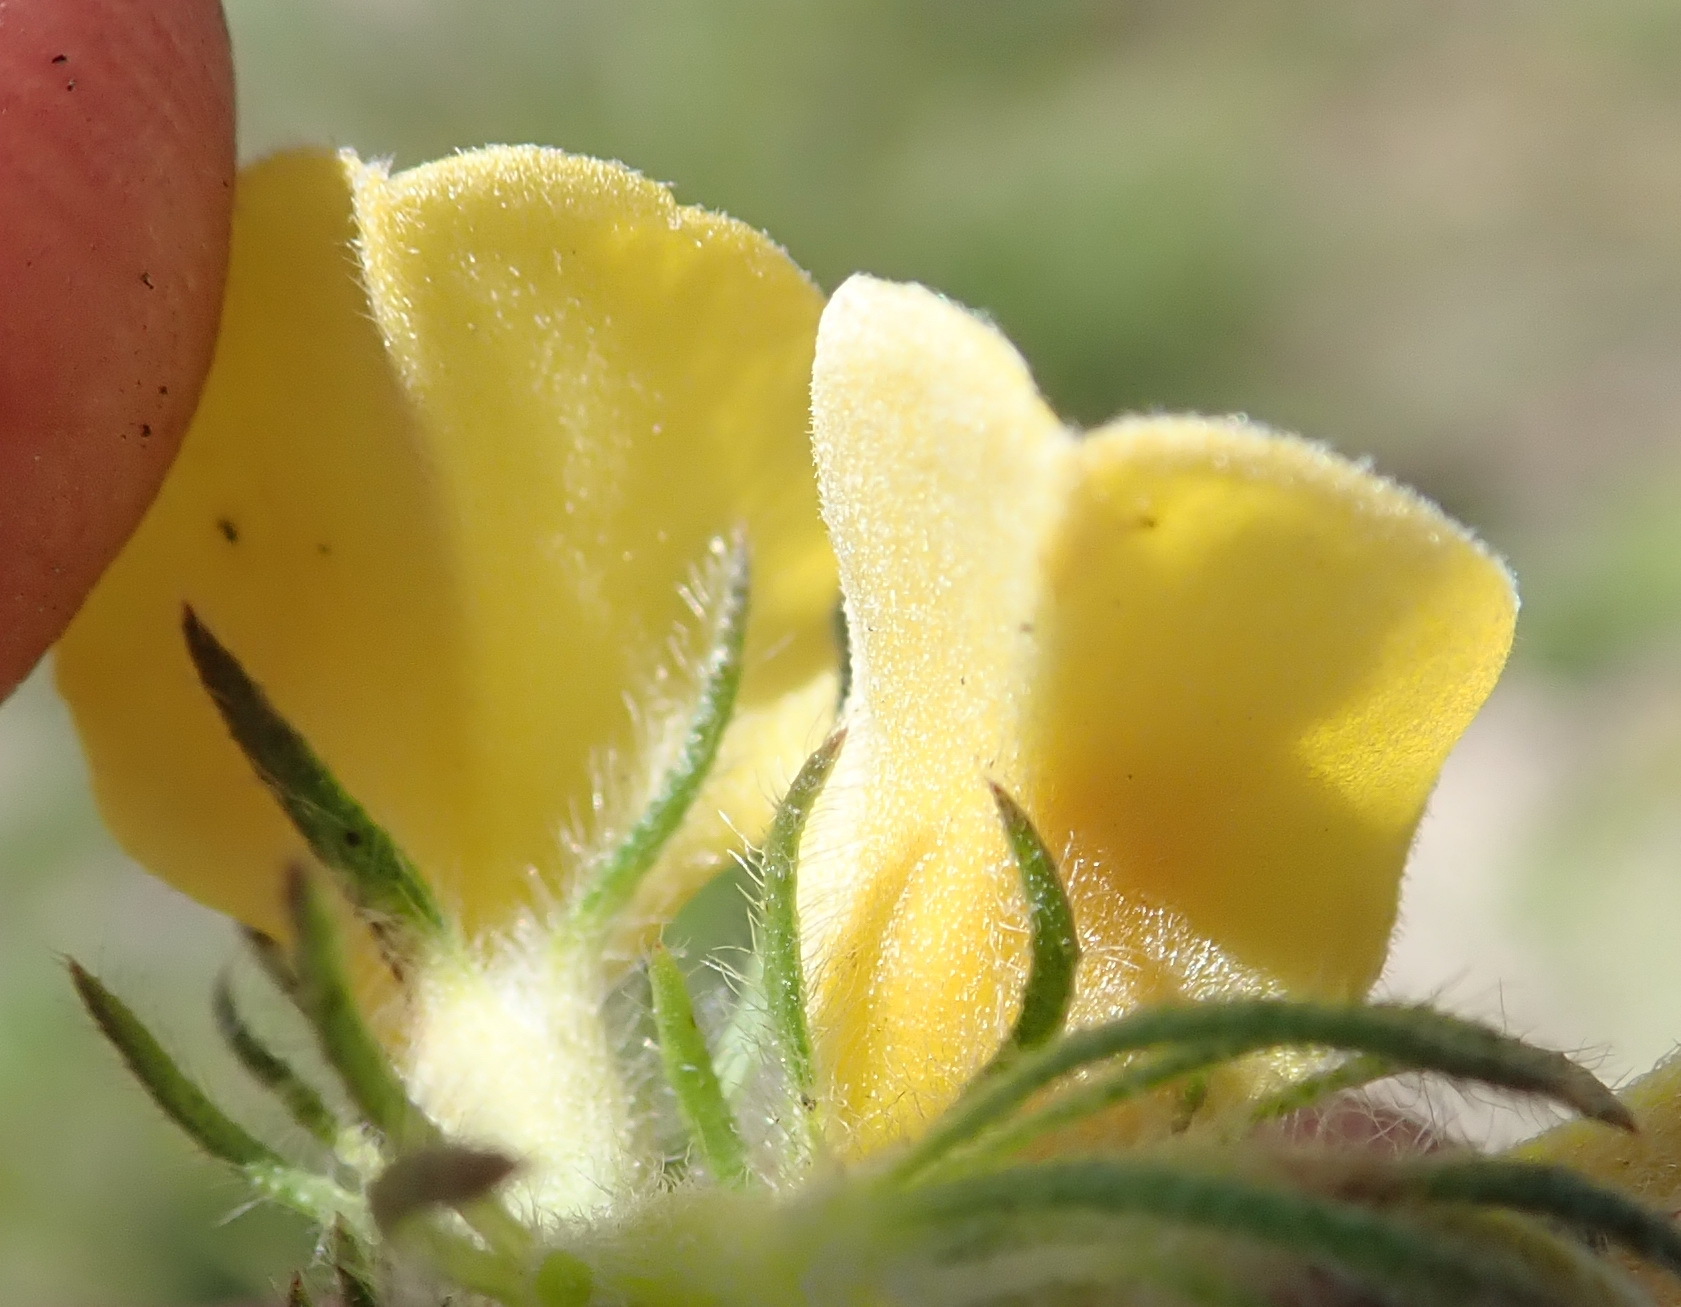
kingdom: Plantae
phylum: Tracheophyta
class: Magnoliopsida
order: Fabales
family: Fabaceae
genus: Aspalathus
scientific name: Aspalathus ciliaris
